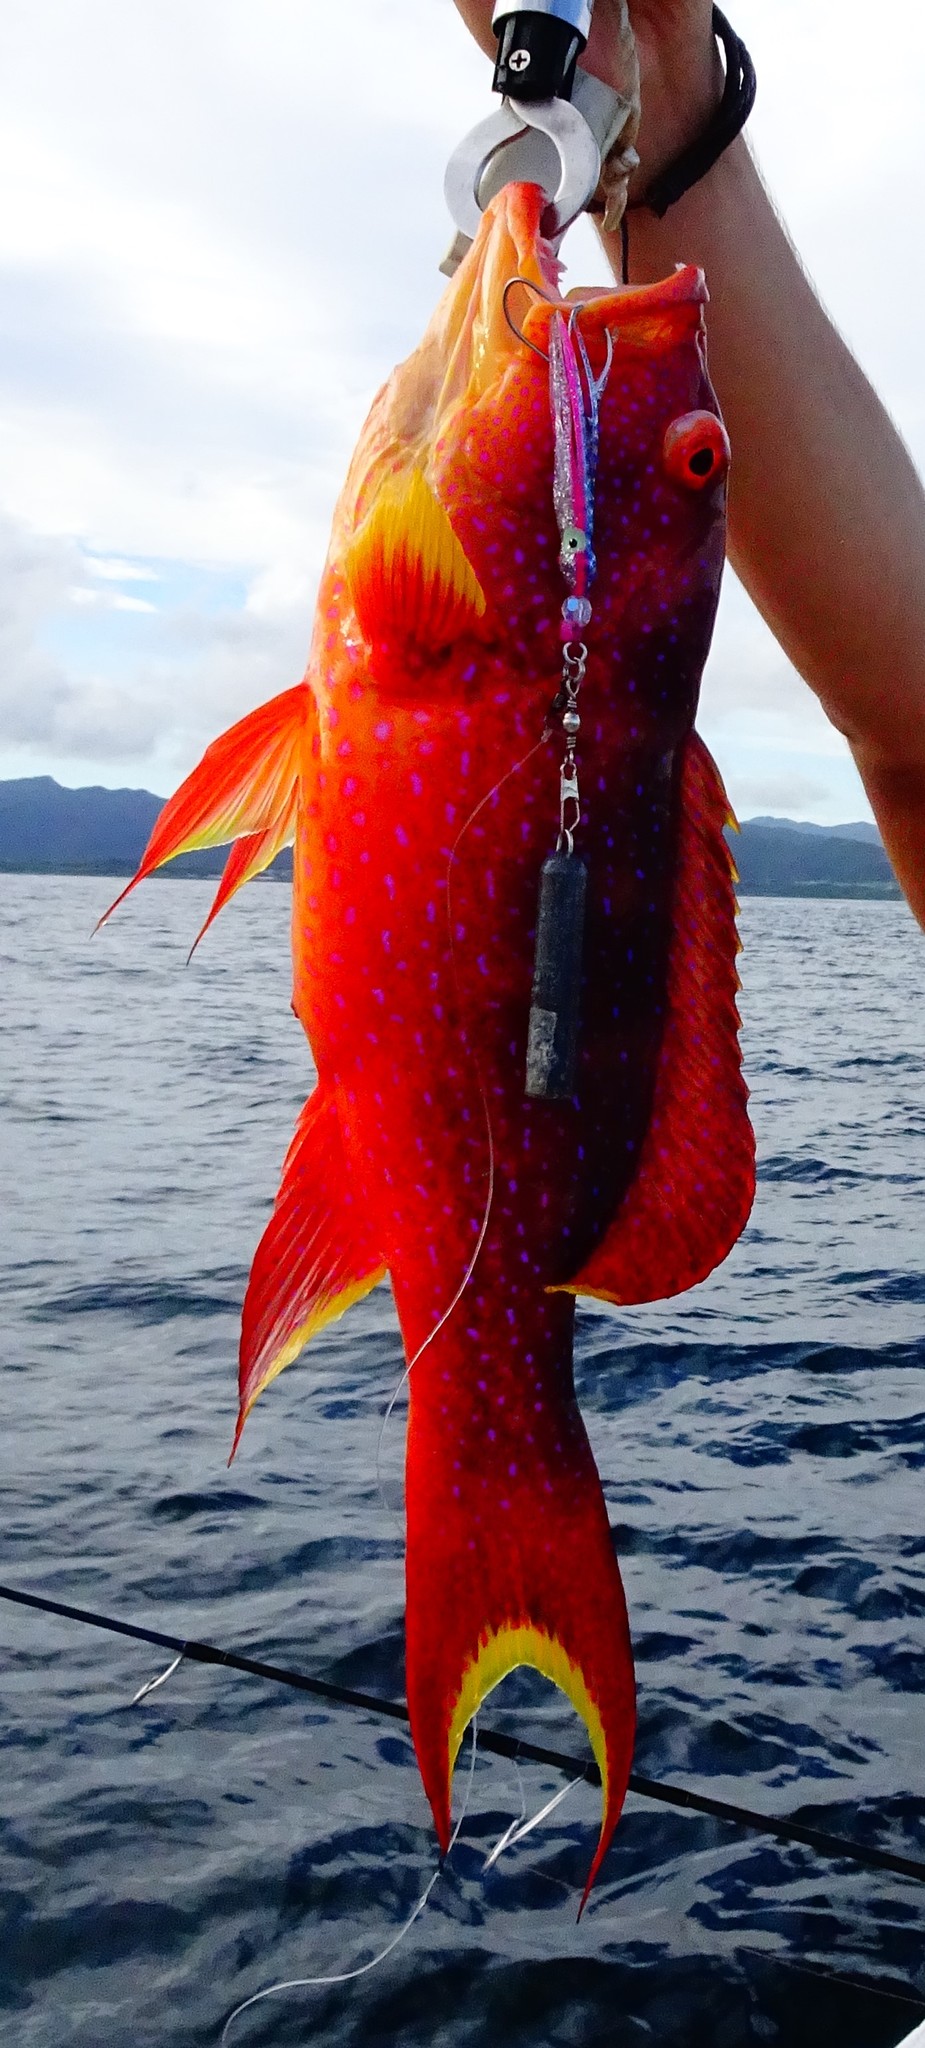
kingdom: Animalia
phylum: Chordata
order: Perciformes
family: Serranidae
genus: Variola
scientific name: Variola louti
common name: Yellow-edged lyretail
